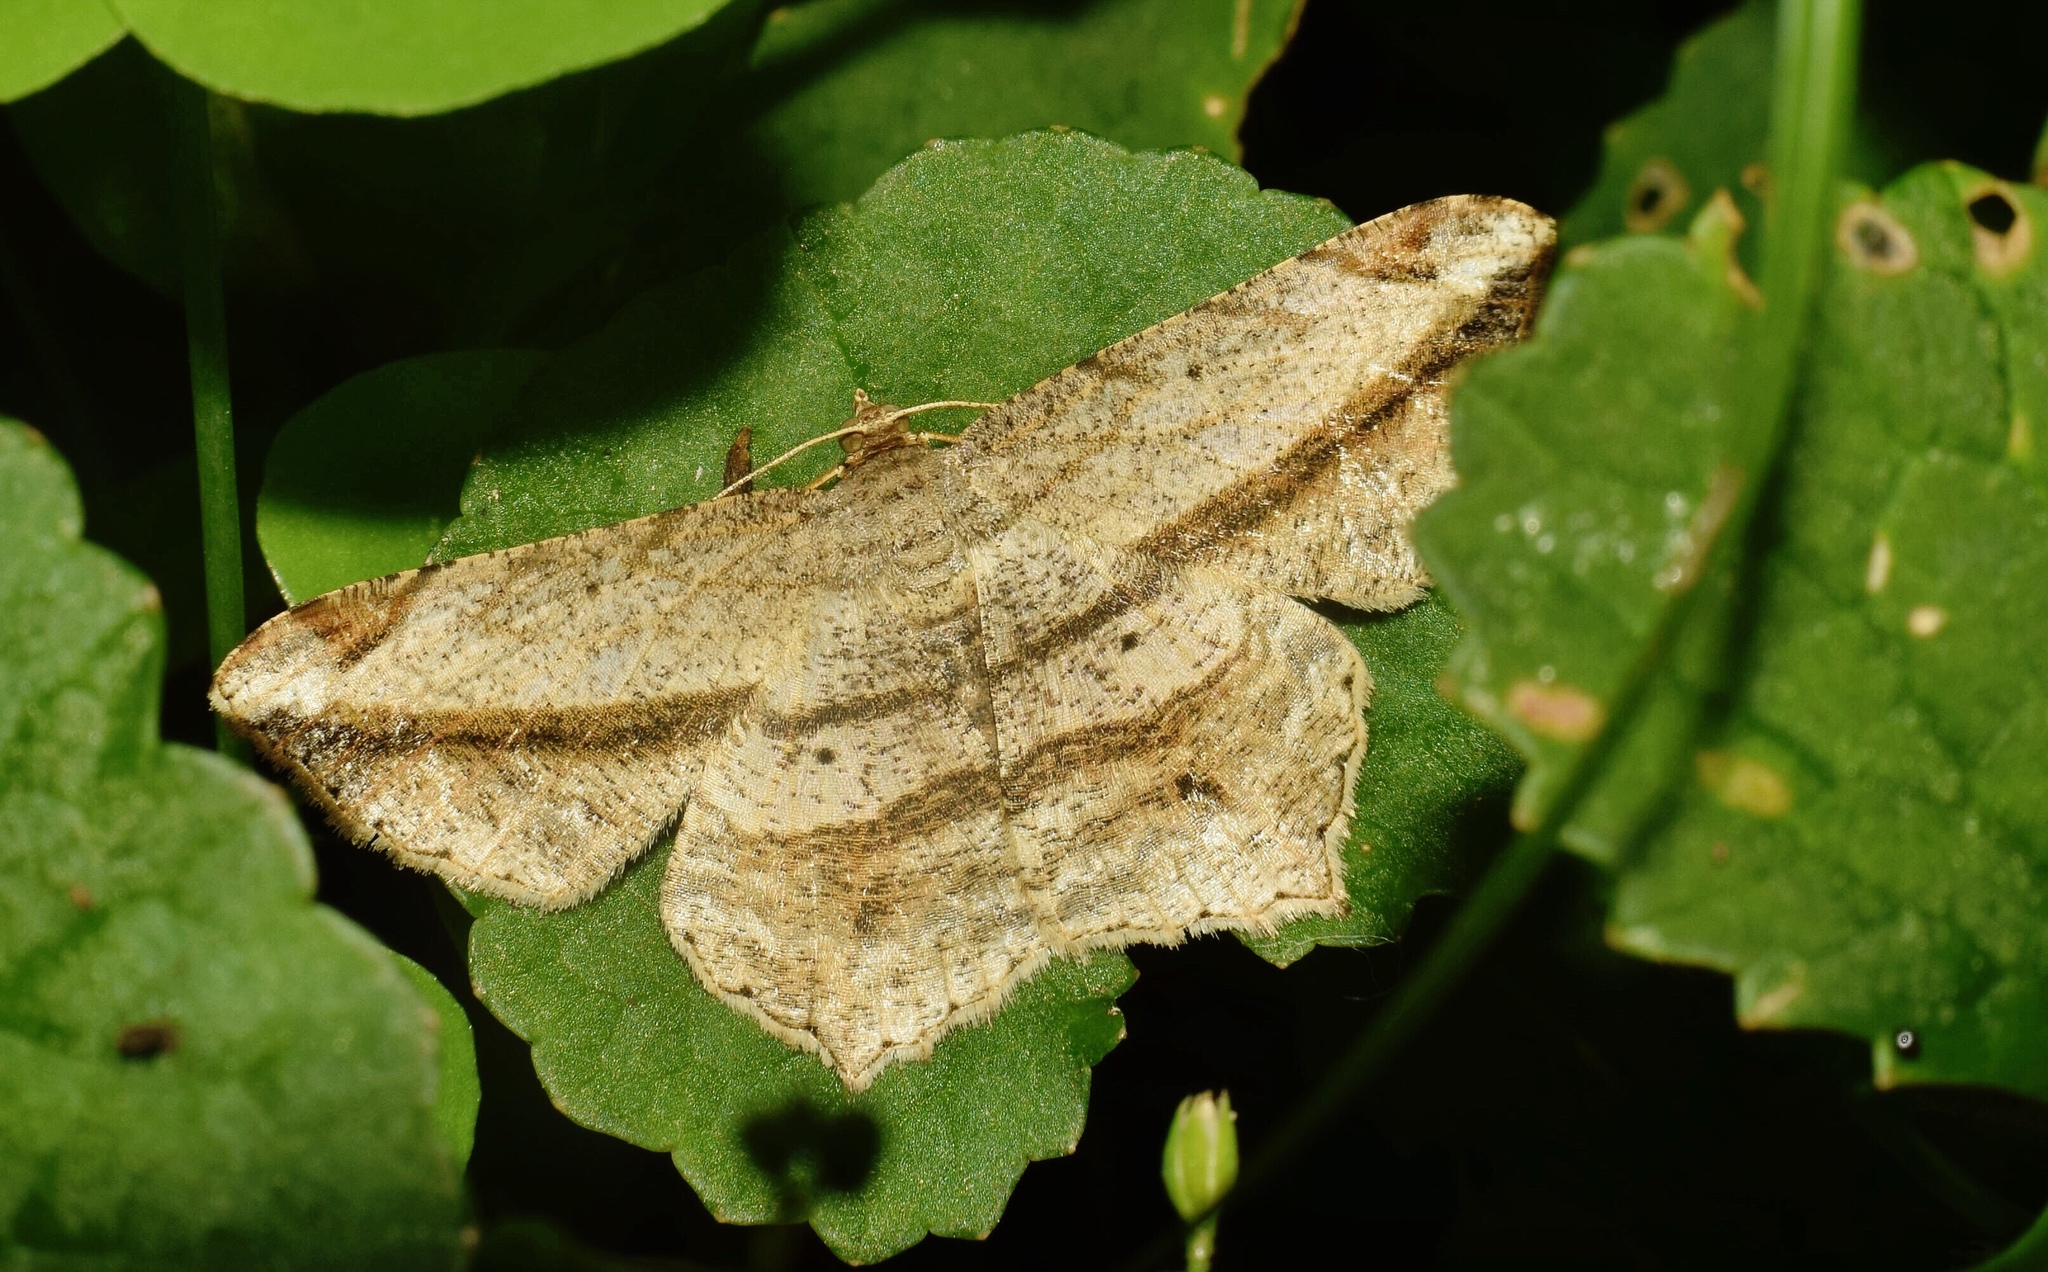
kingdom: Animalia
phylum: Arthropoda
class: Insecta
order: Lepidoptera
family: Geometridae
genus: Chiasmia
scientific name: Chiasmia rectistriaria
